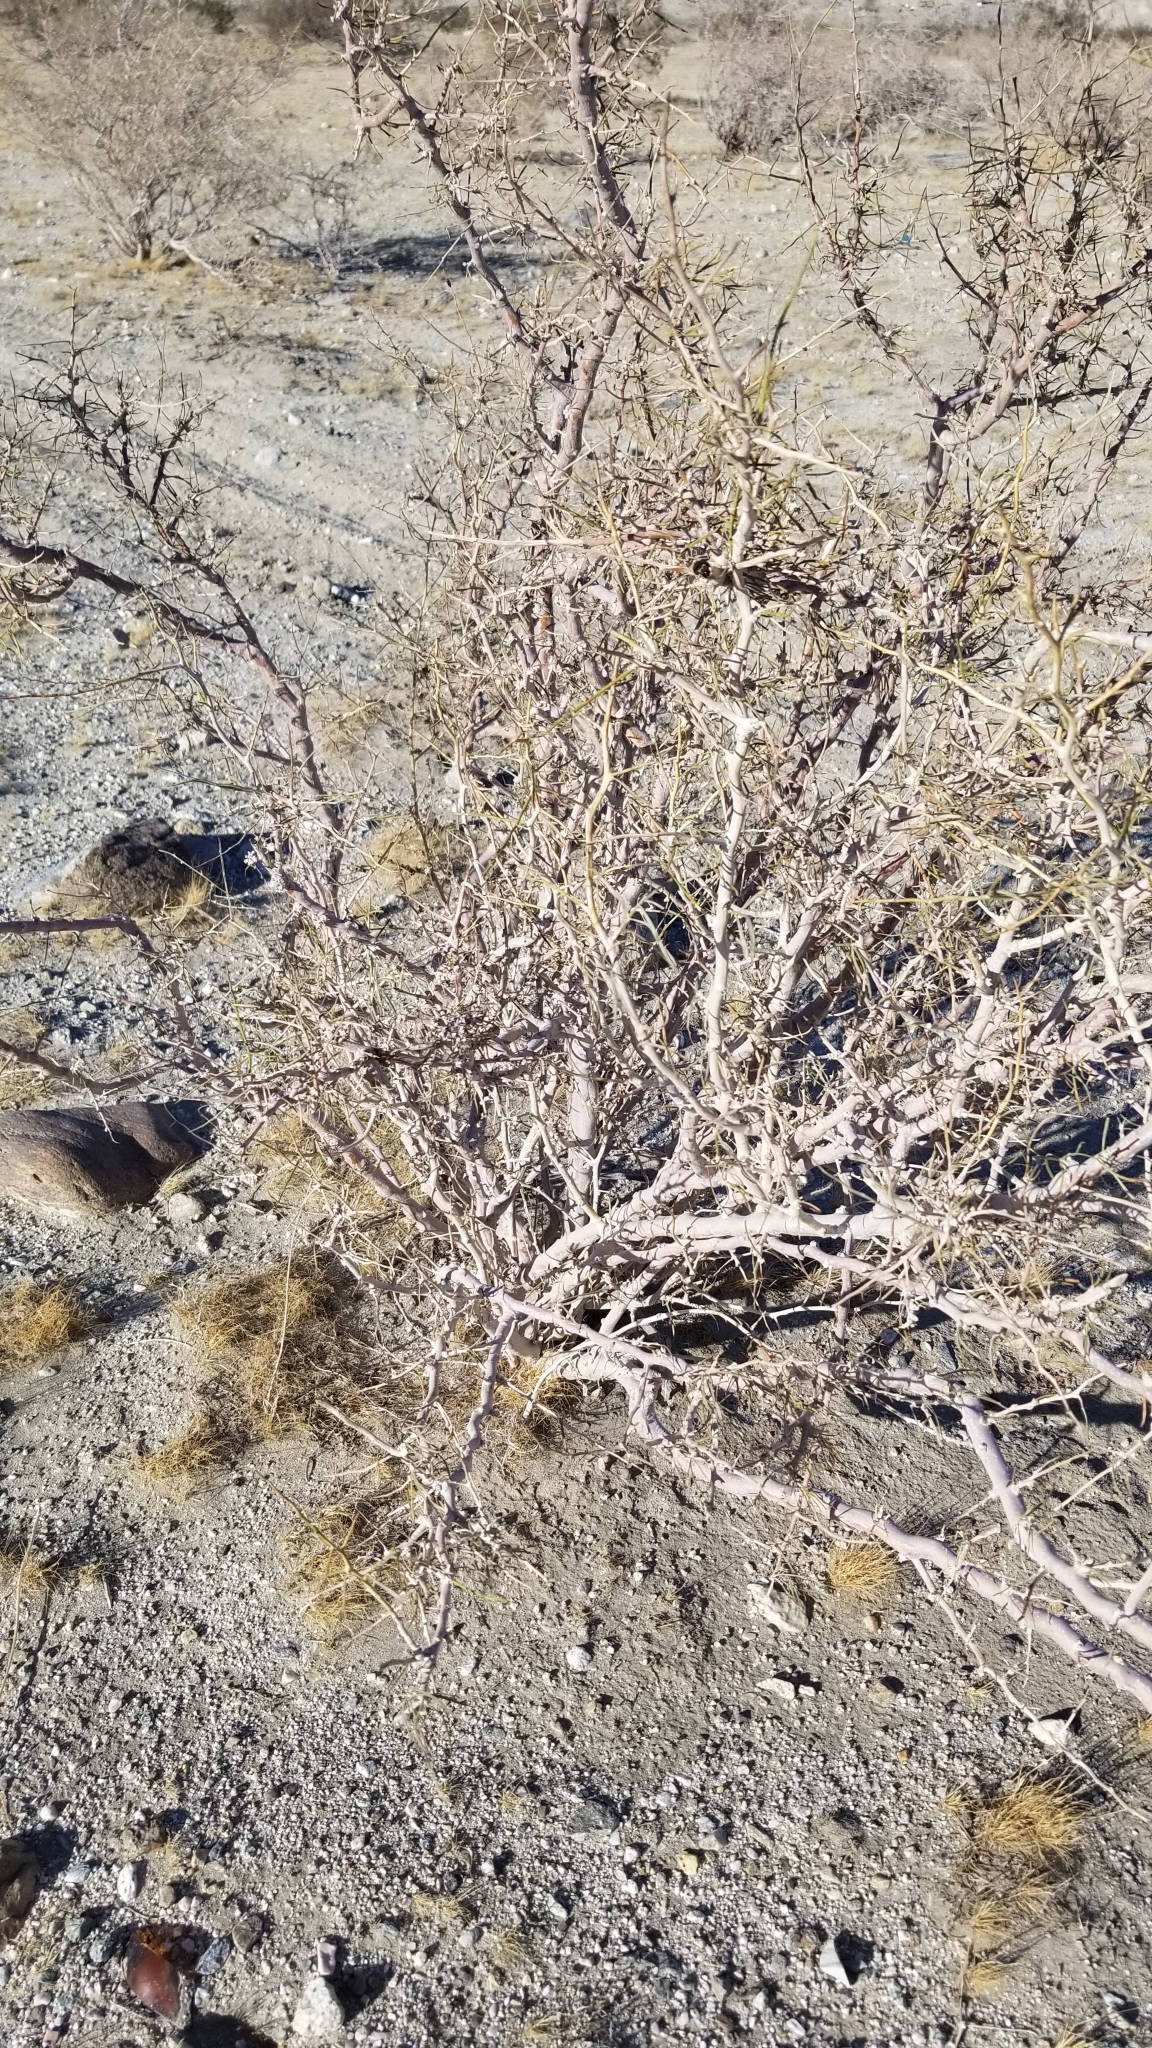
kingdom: Plantae
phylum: Tracheophyta
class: Magnoliopsida
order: Fabales
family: Fabaceae
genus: Psorothamnus
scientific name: Psorothamnus schottii
